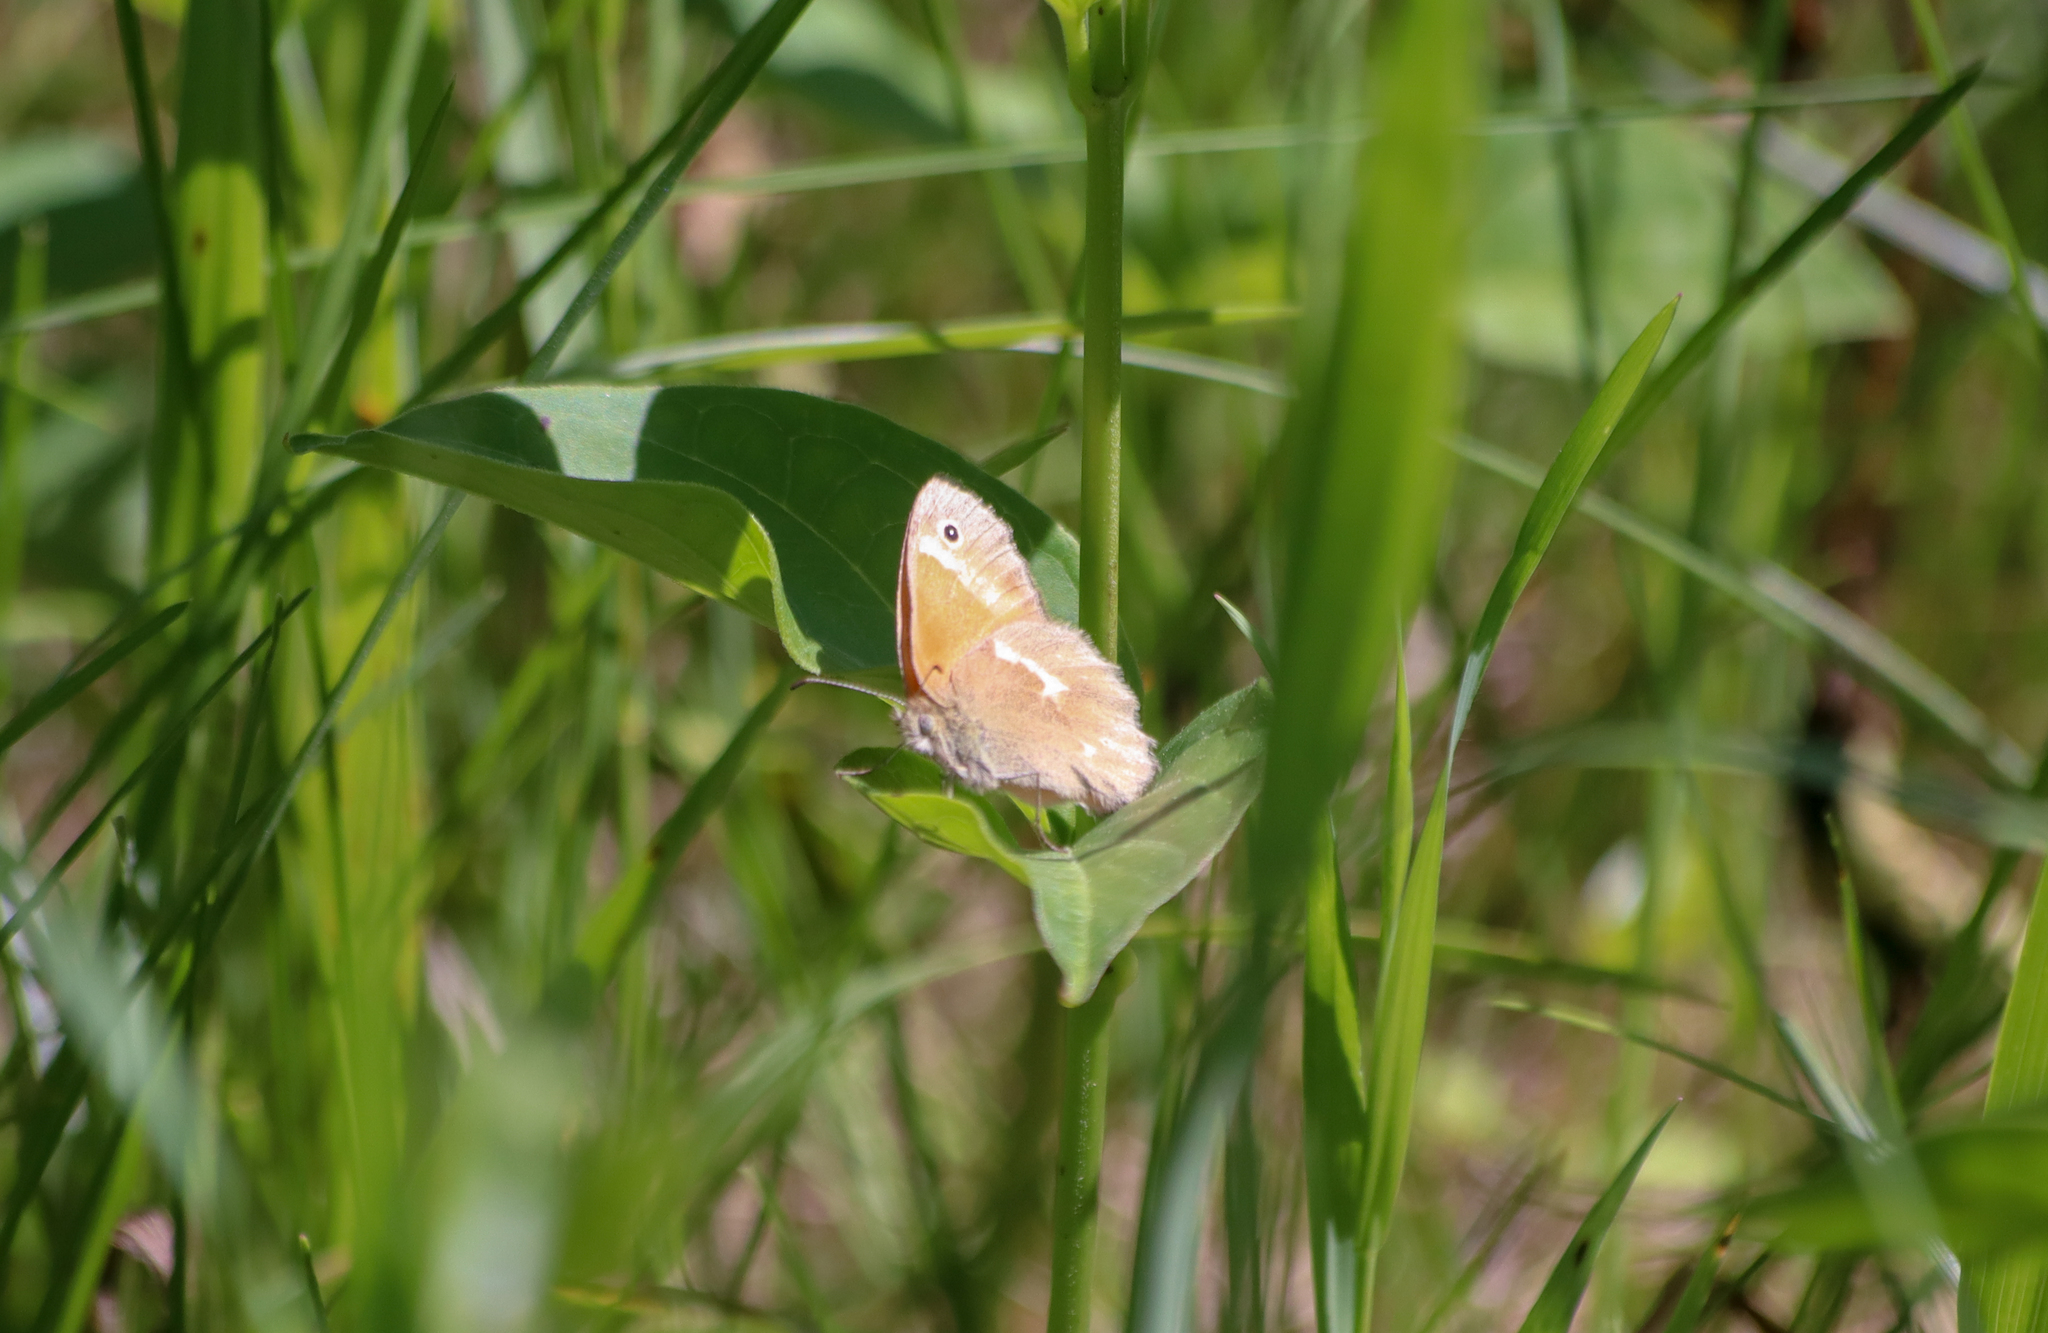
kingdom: Animalia
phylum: Arthropoda
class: Insecta
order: Lepidoptera
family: Nymphalidae
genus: Coenonympha
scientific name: Coenonympha california
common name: Common ringlet
